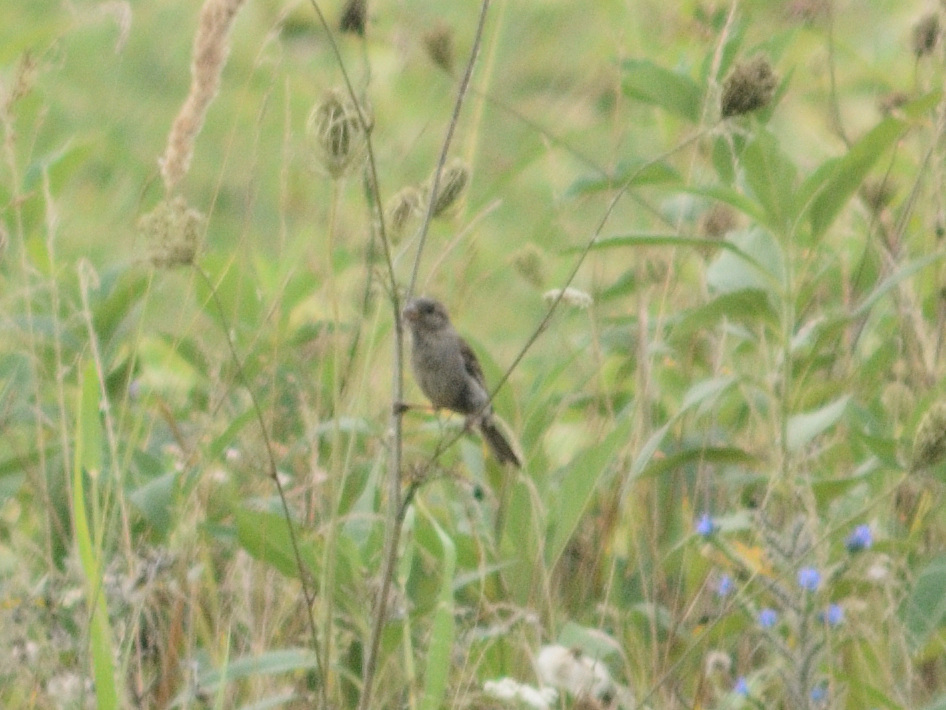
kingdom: Animalia
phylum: Chordata
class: Aves
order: Passeriformes
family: Passeridae
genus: Passer
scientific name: Passer domesticus
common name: House sparrow
